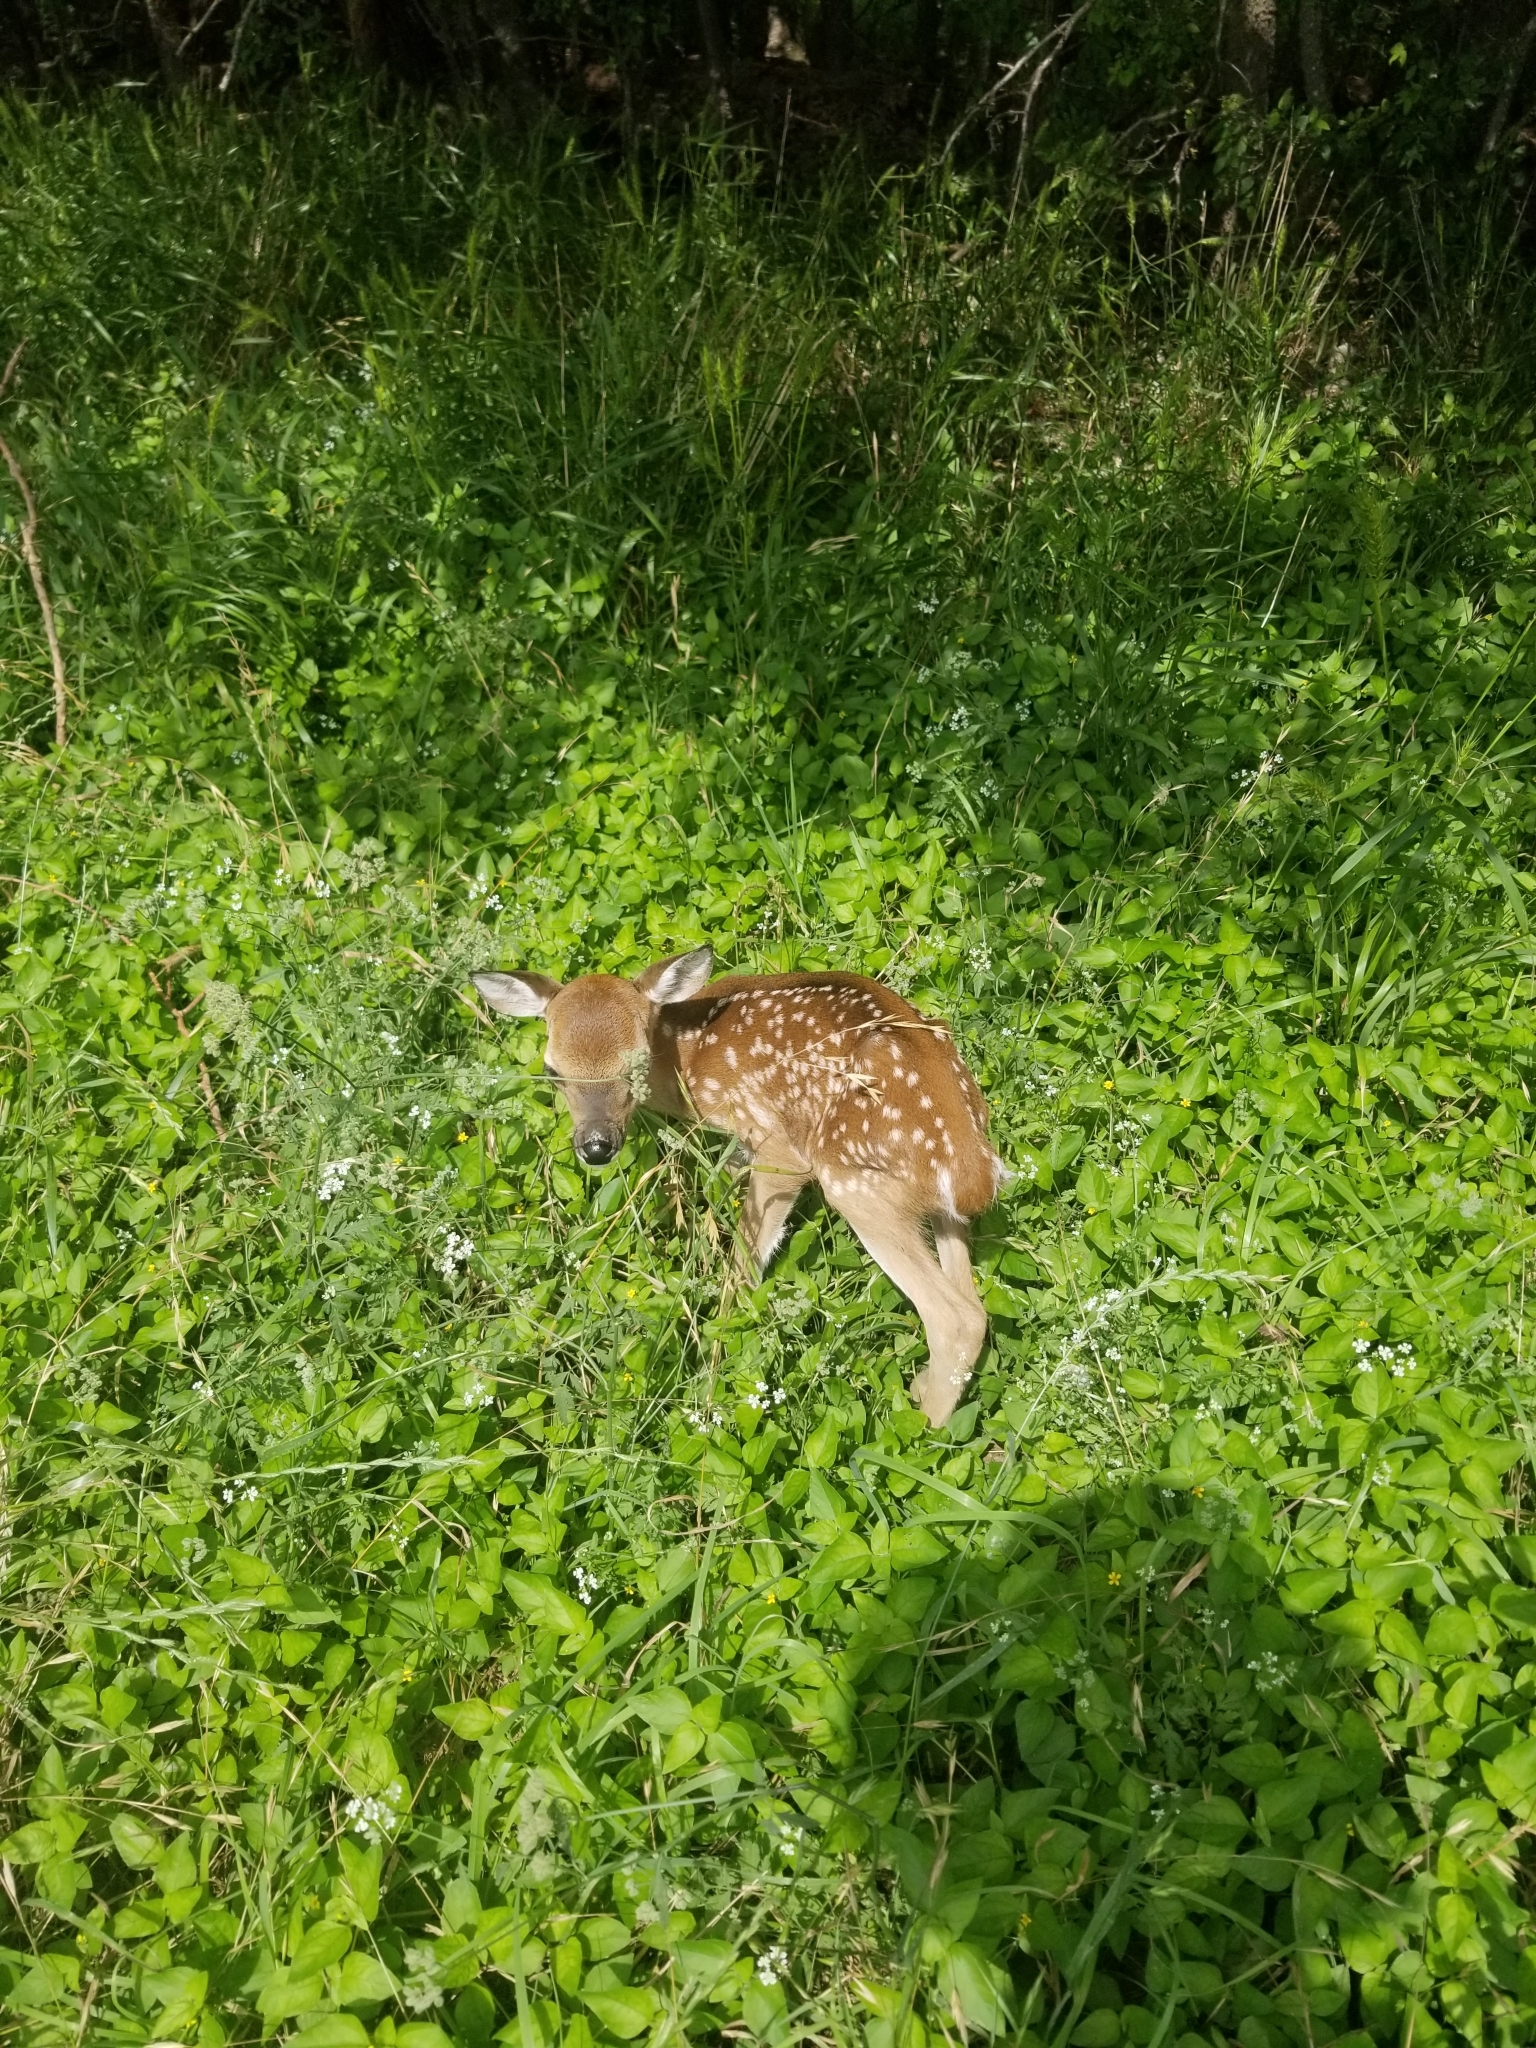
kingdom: Animalia
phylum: Chordata
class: Mammalia
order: Artiodactyla
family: Cervidae
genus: Odocoileus
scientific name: Odocoileus virginianus
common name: White-tailed deer
